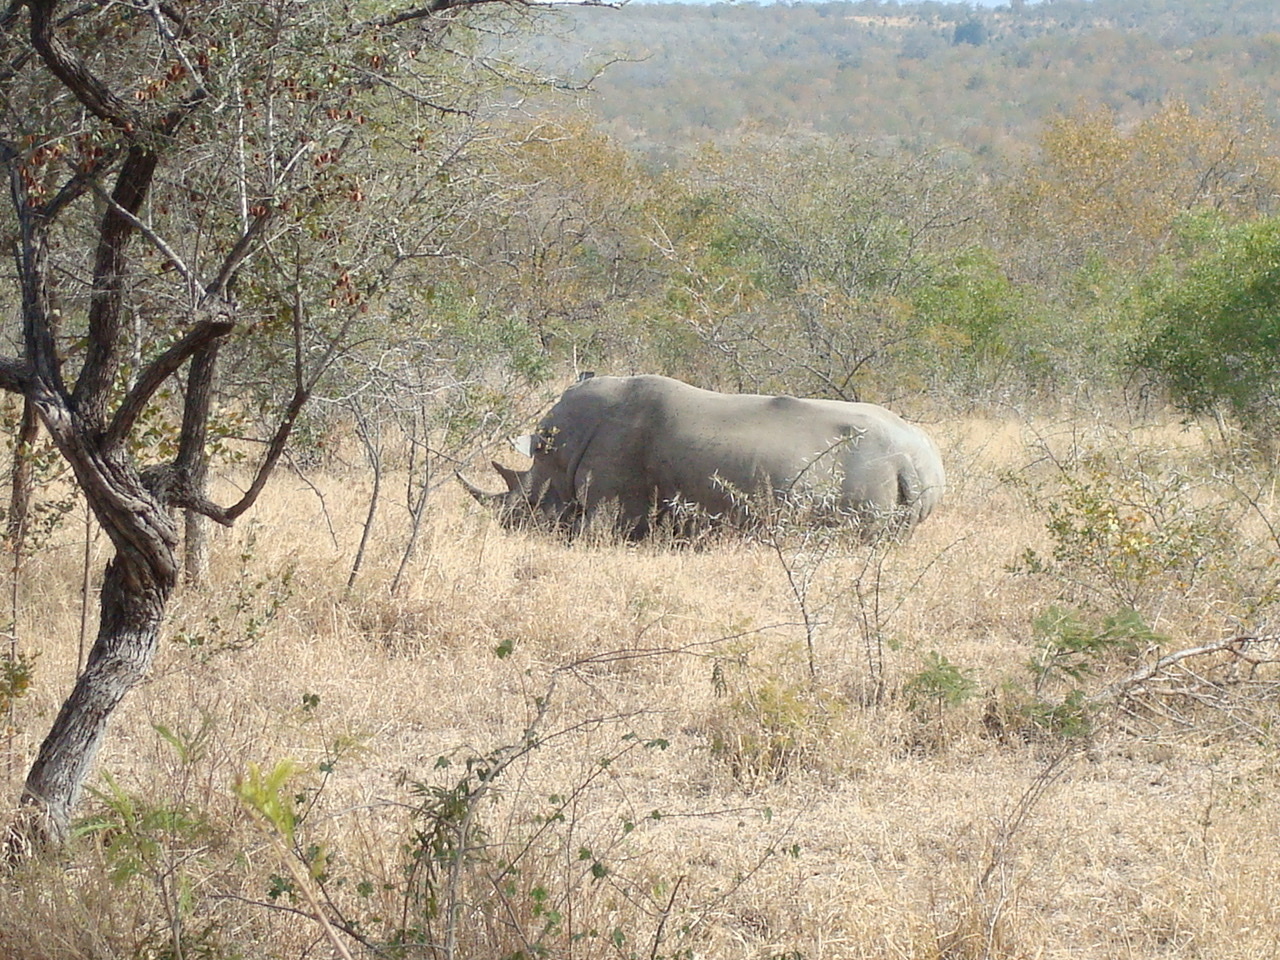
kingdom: Animalia
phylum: Chordata
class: Mammalia
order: Perissodactyla
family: Rhinocerotidae
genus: Ceratotherium
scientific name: Ceratotherium simum
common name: White rhinoceros
